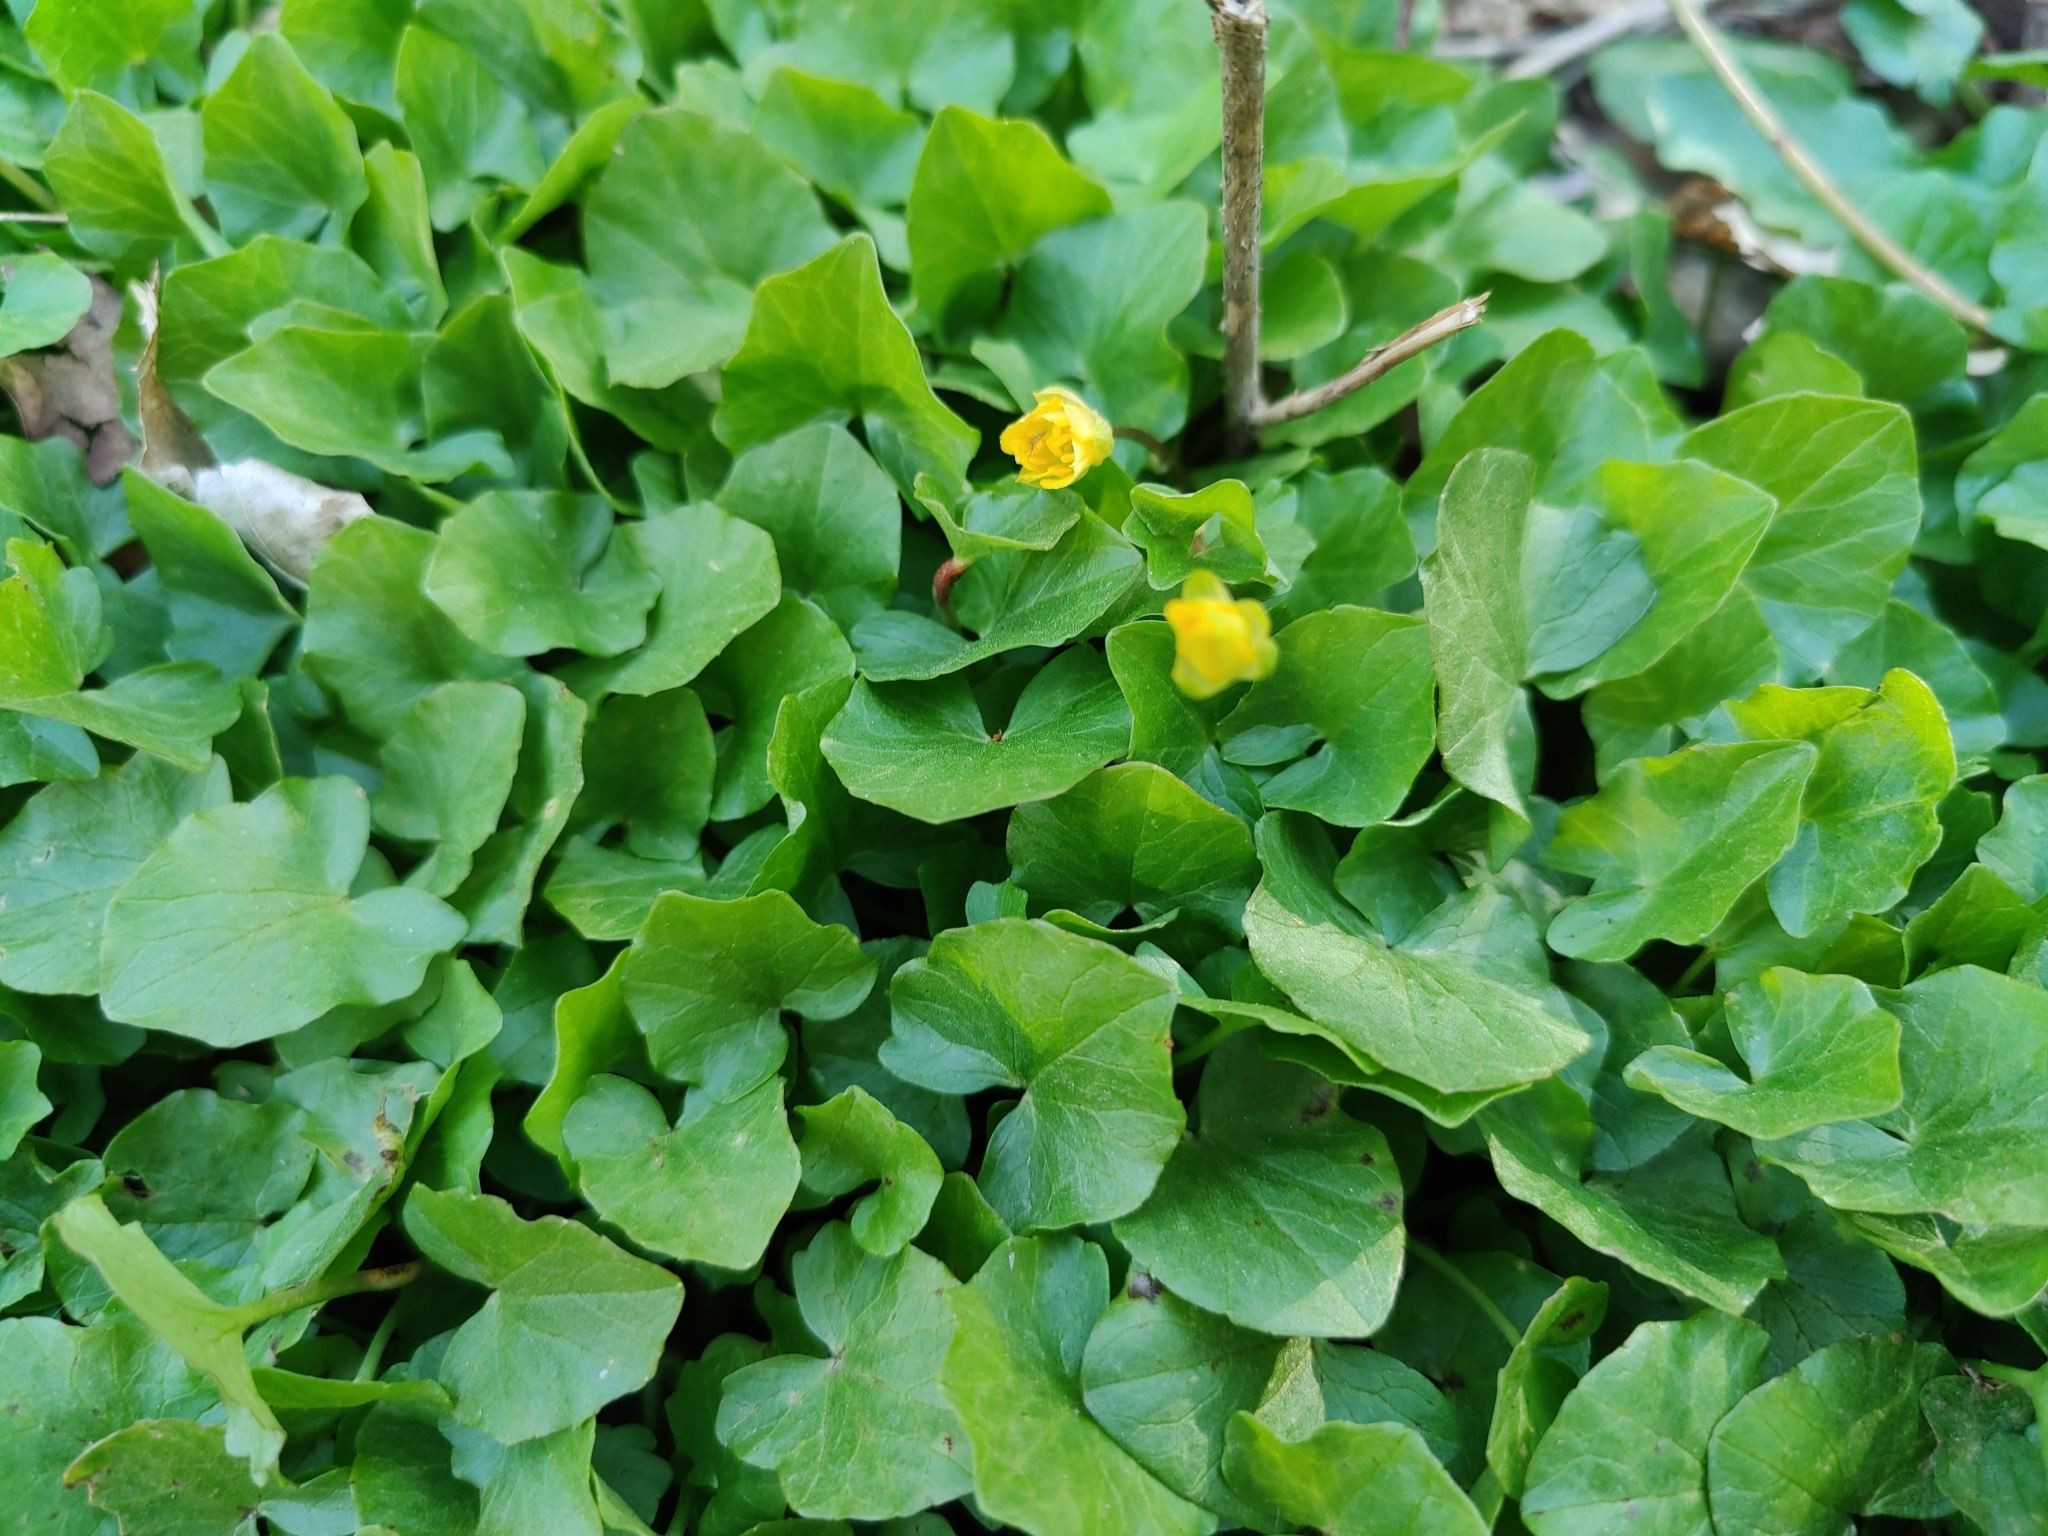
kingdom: Plantae
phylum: Tracheophyta
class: Magnoliopsida
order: Ranunculales
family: Ranunculaceae
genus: Ficaria
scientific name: Ficaria verna
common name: Lesser celandine
